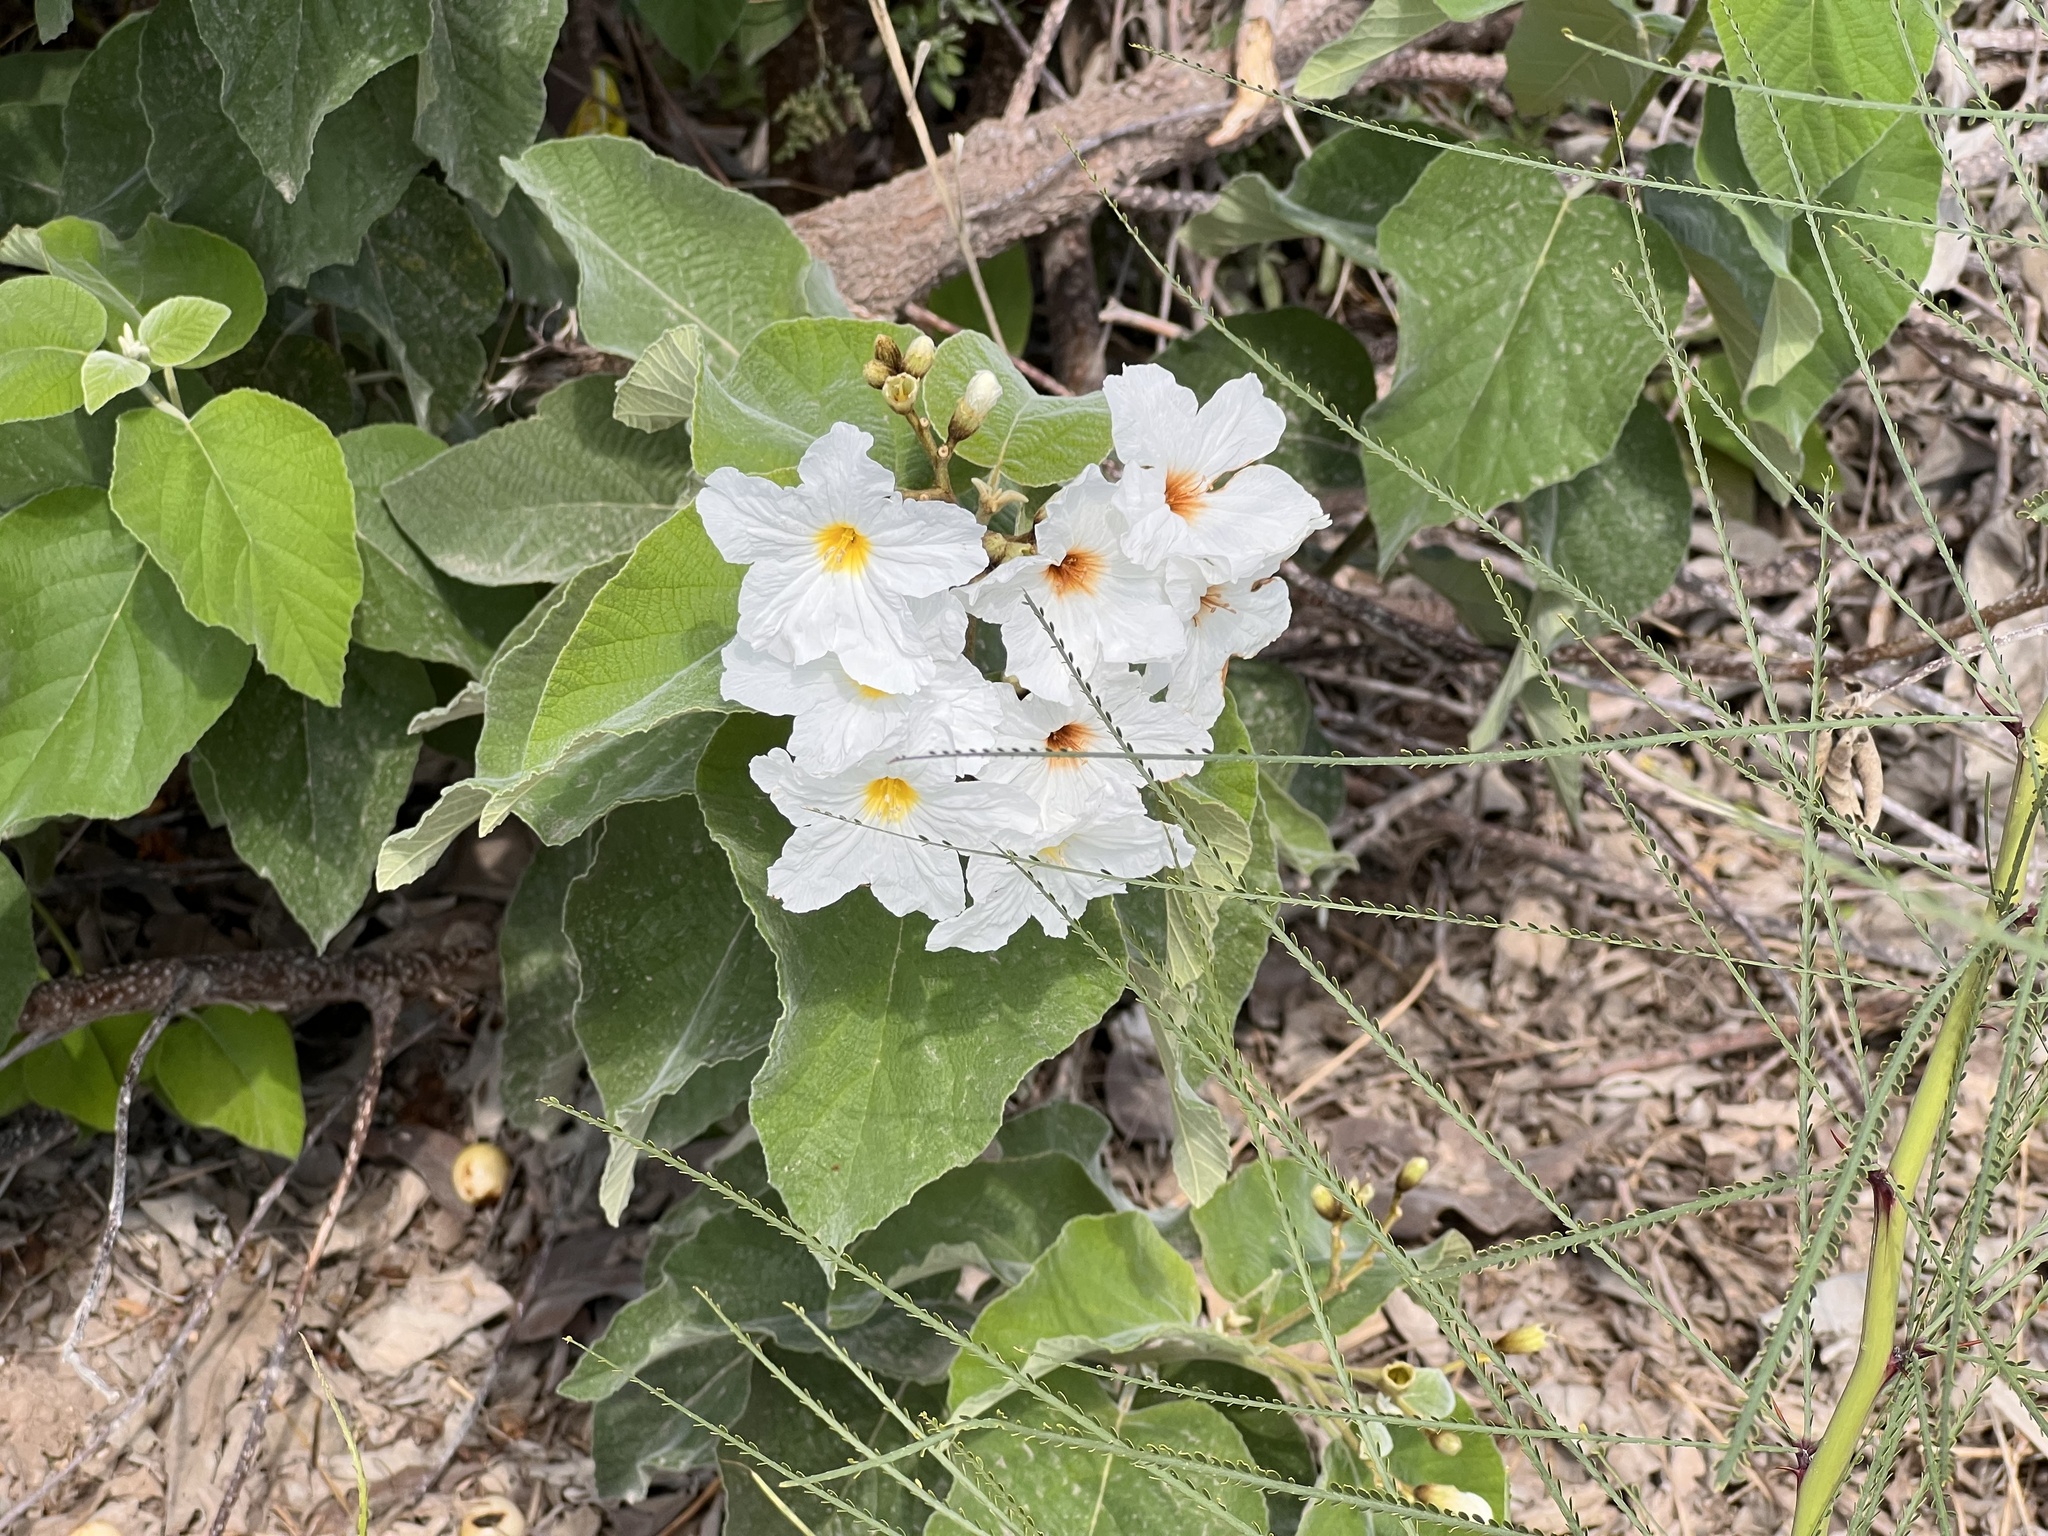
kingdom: Plantae
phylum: Tracheophyta
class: Magnoliopsida
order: Boraginales
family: Cordiaceae
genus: Cordia
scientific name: Cordia boissieri
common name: Mexican-olive
